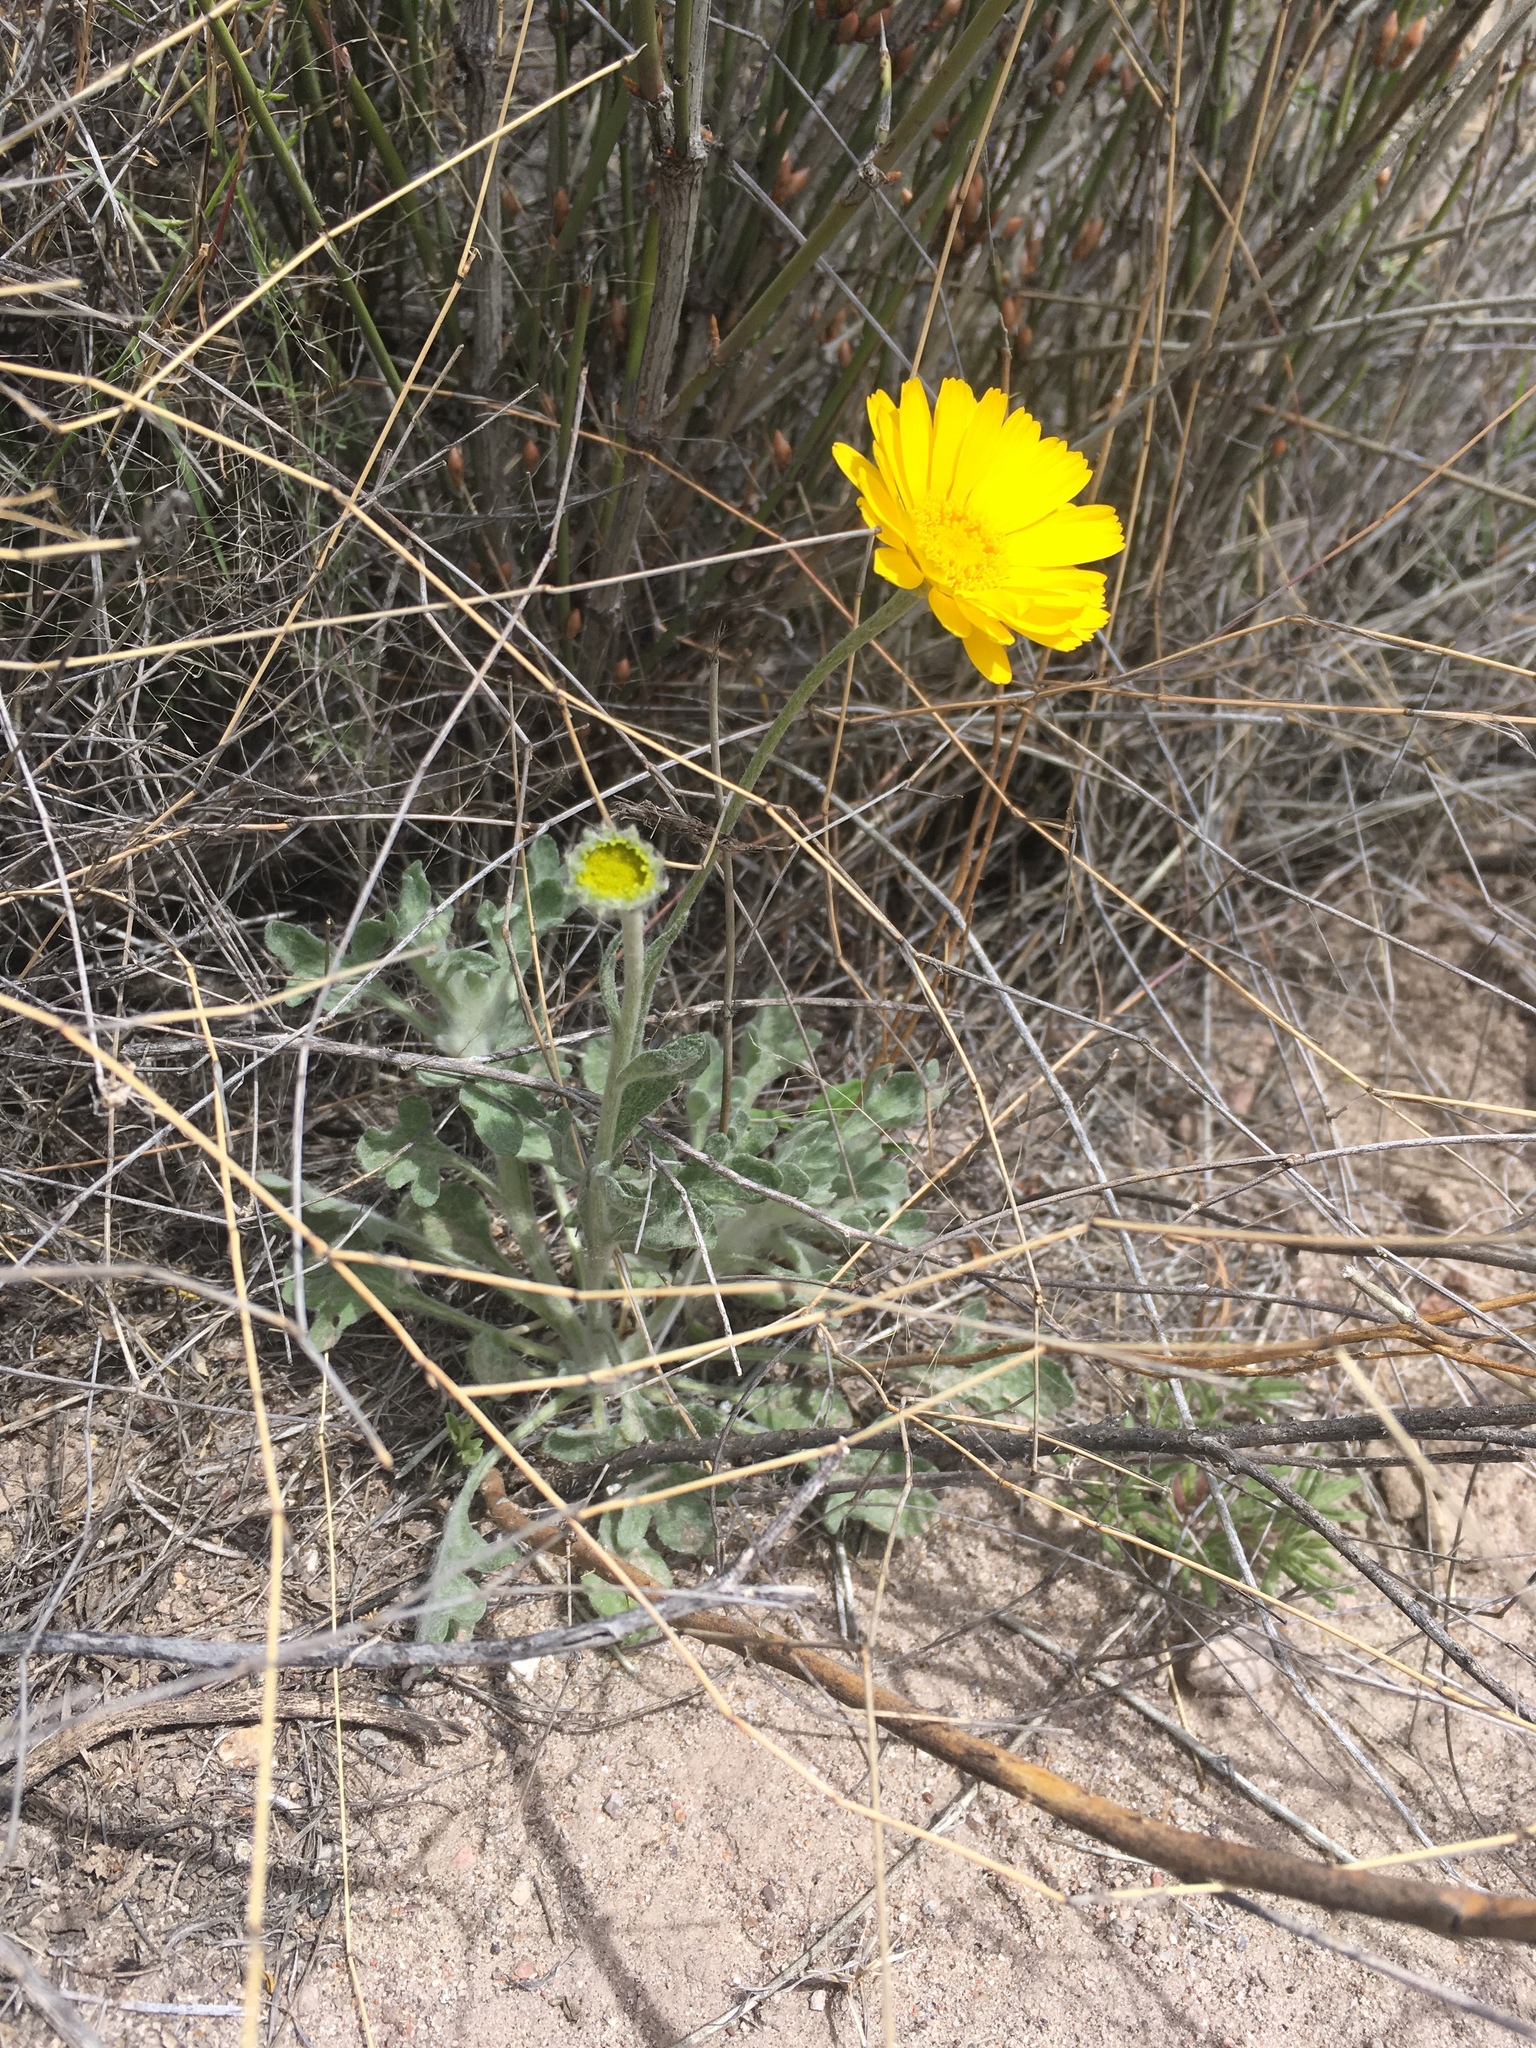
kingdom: Plantae
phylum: Tracheophyta
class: Magnoliopsida
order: Asterales
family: Asteraceae
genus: Baileya
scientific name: Baileya multiradiata
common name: Desert-marigold
